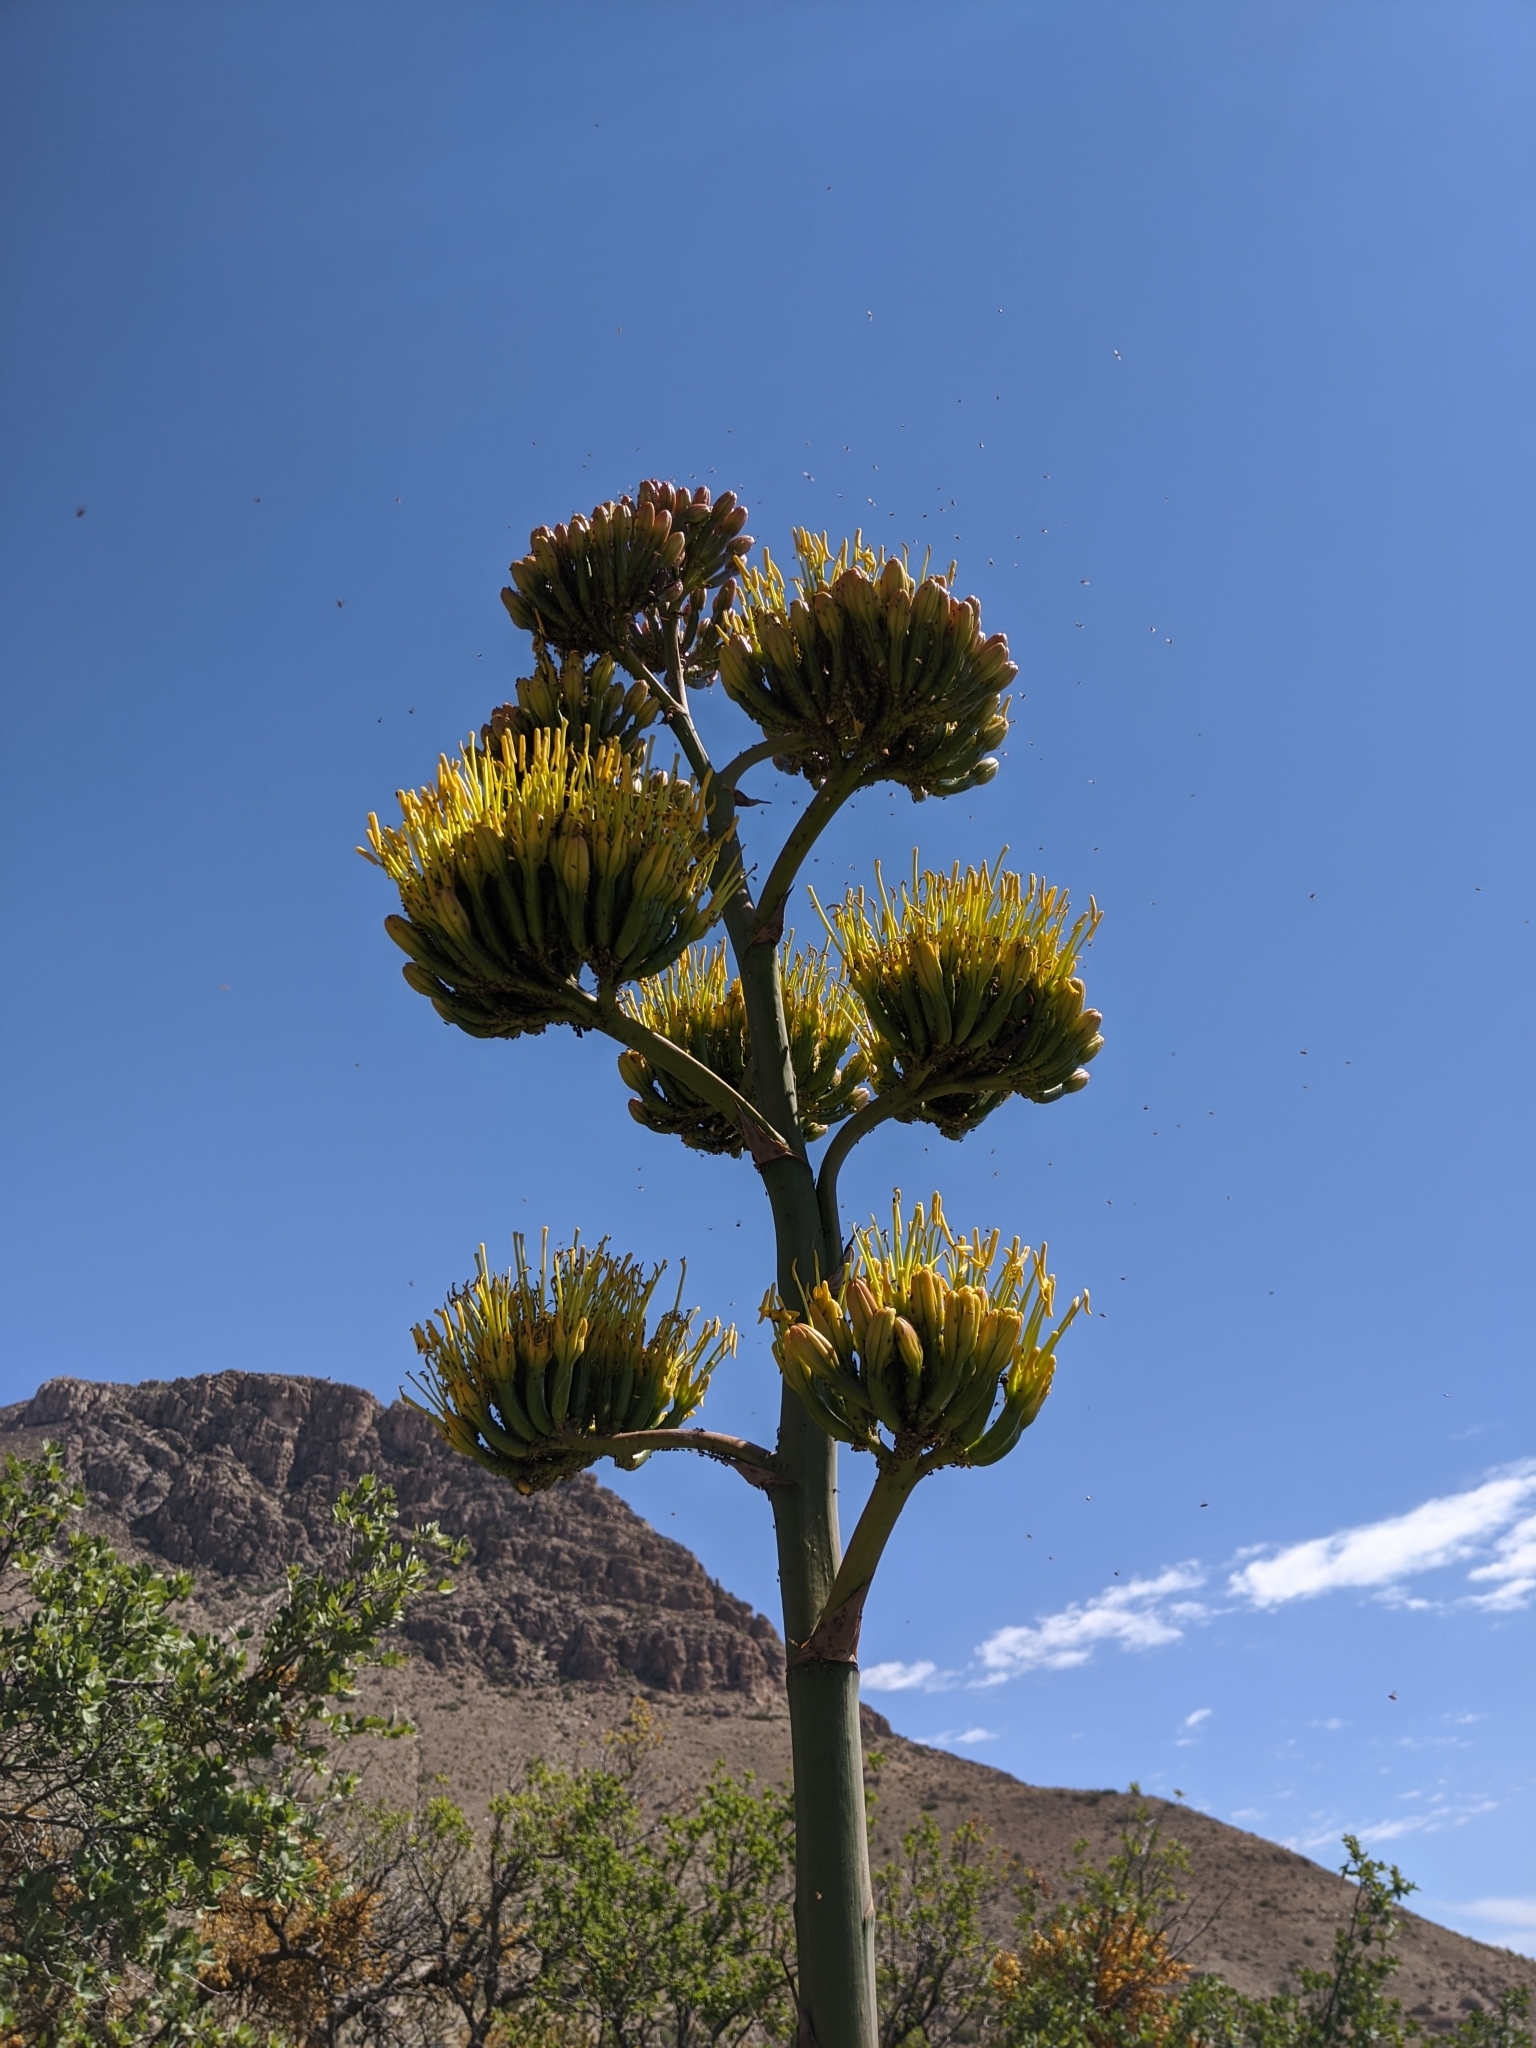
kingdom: Plantae
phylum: Tracheophyta
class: Liliopsida
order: Asparagales
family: Asparagaceae
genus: Agave
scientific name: Agave parryi
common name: Parry's agave
